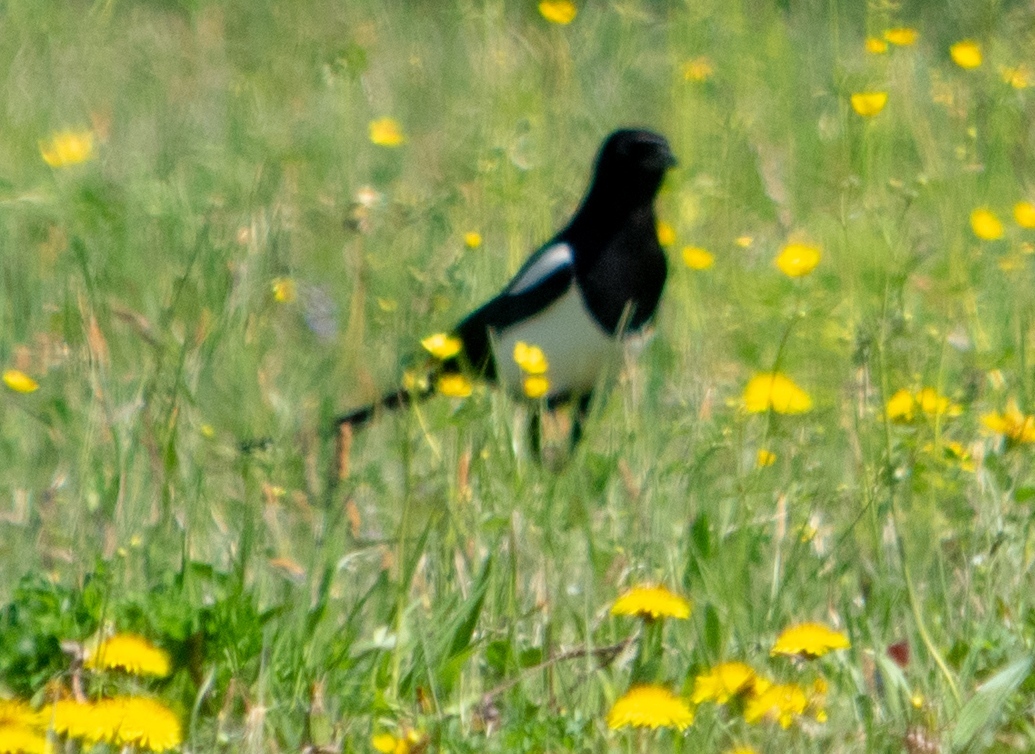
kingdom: Animalia
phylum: Chordata
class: Aves
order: Passeriformes
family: Corvidae
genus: Pica
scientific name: Pica pica
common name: Eurasian magpie
